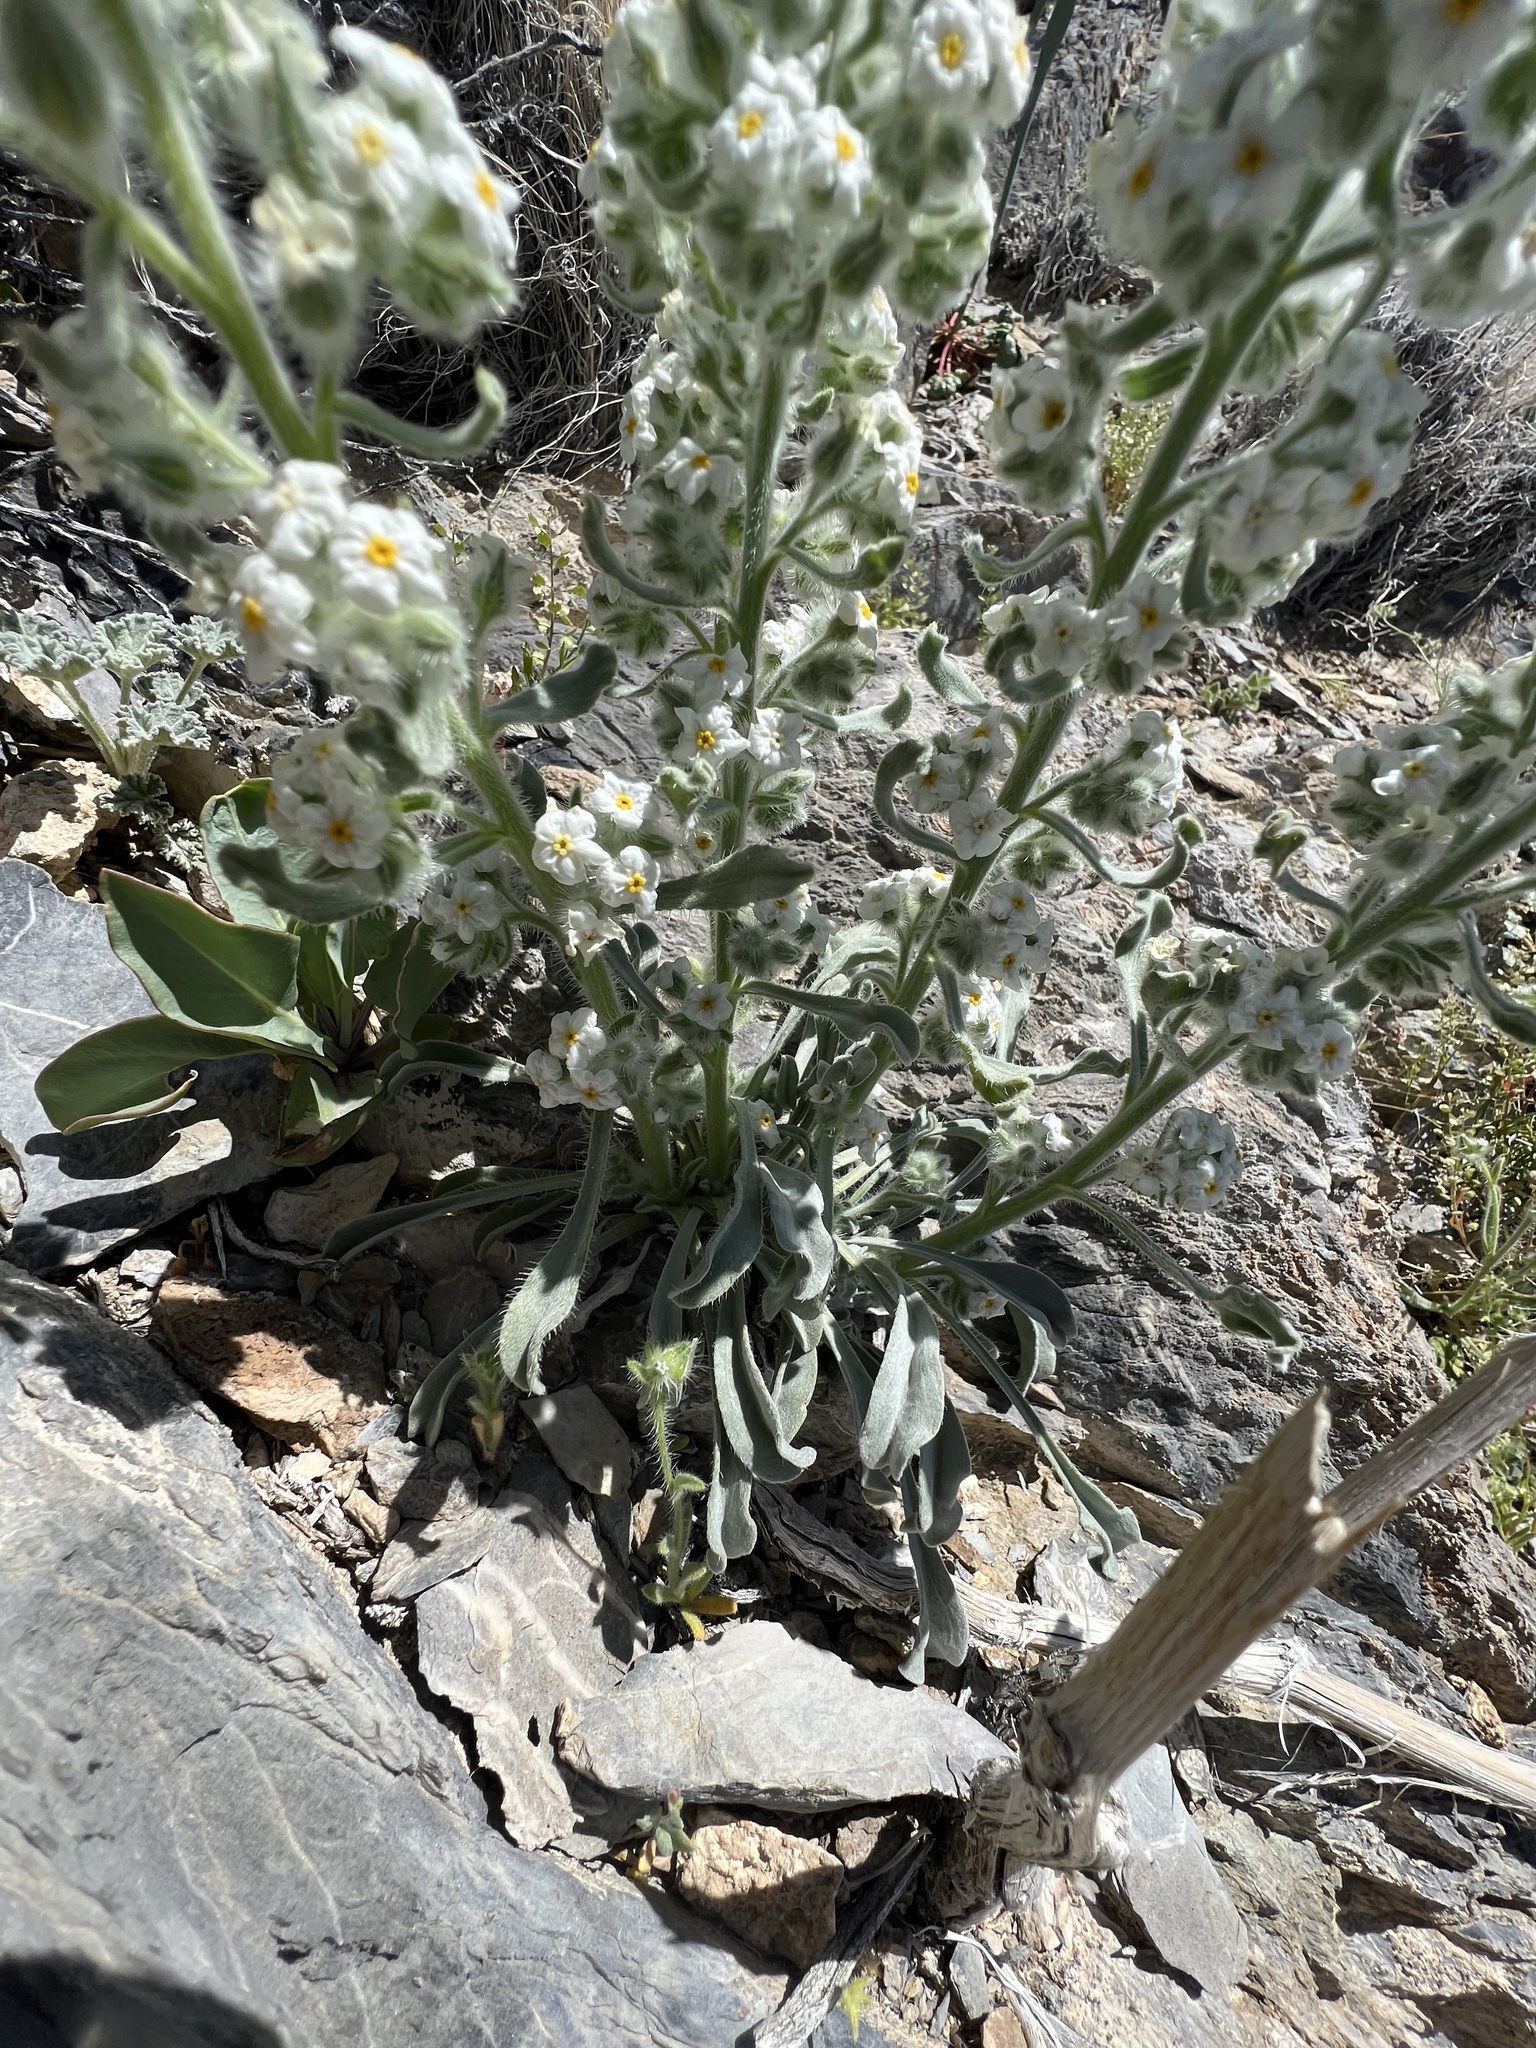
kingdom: Plantae
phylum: Tracheophyta
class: Magnoliopsida
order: Boraginales
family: Boraginaceae
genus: Oreocarya
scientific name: Oreocarya hoffmannii
